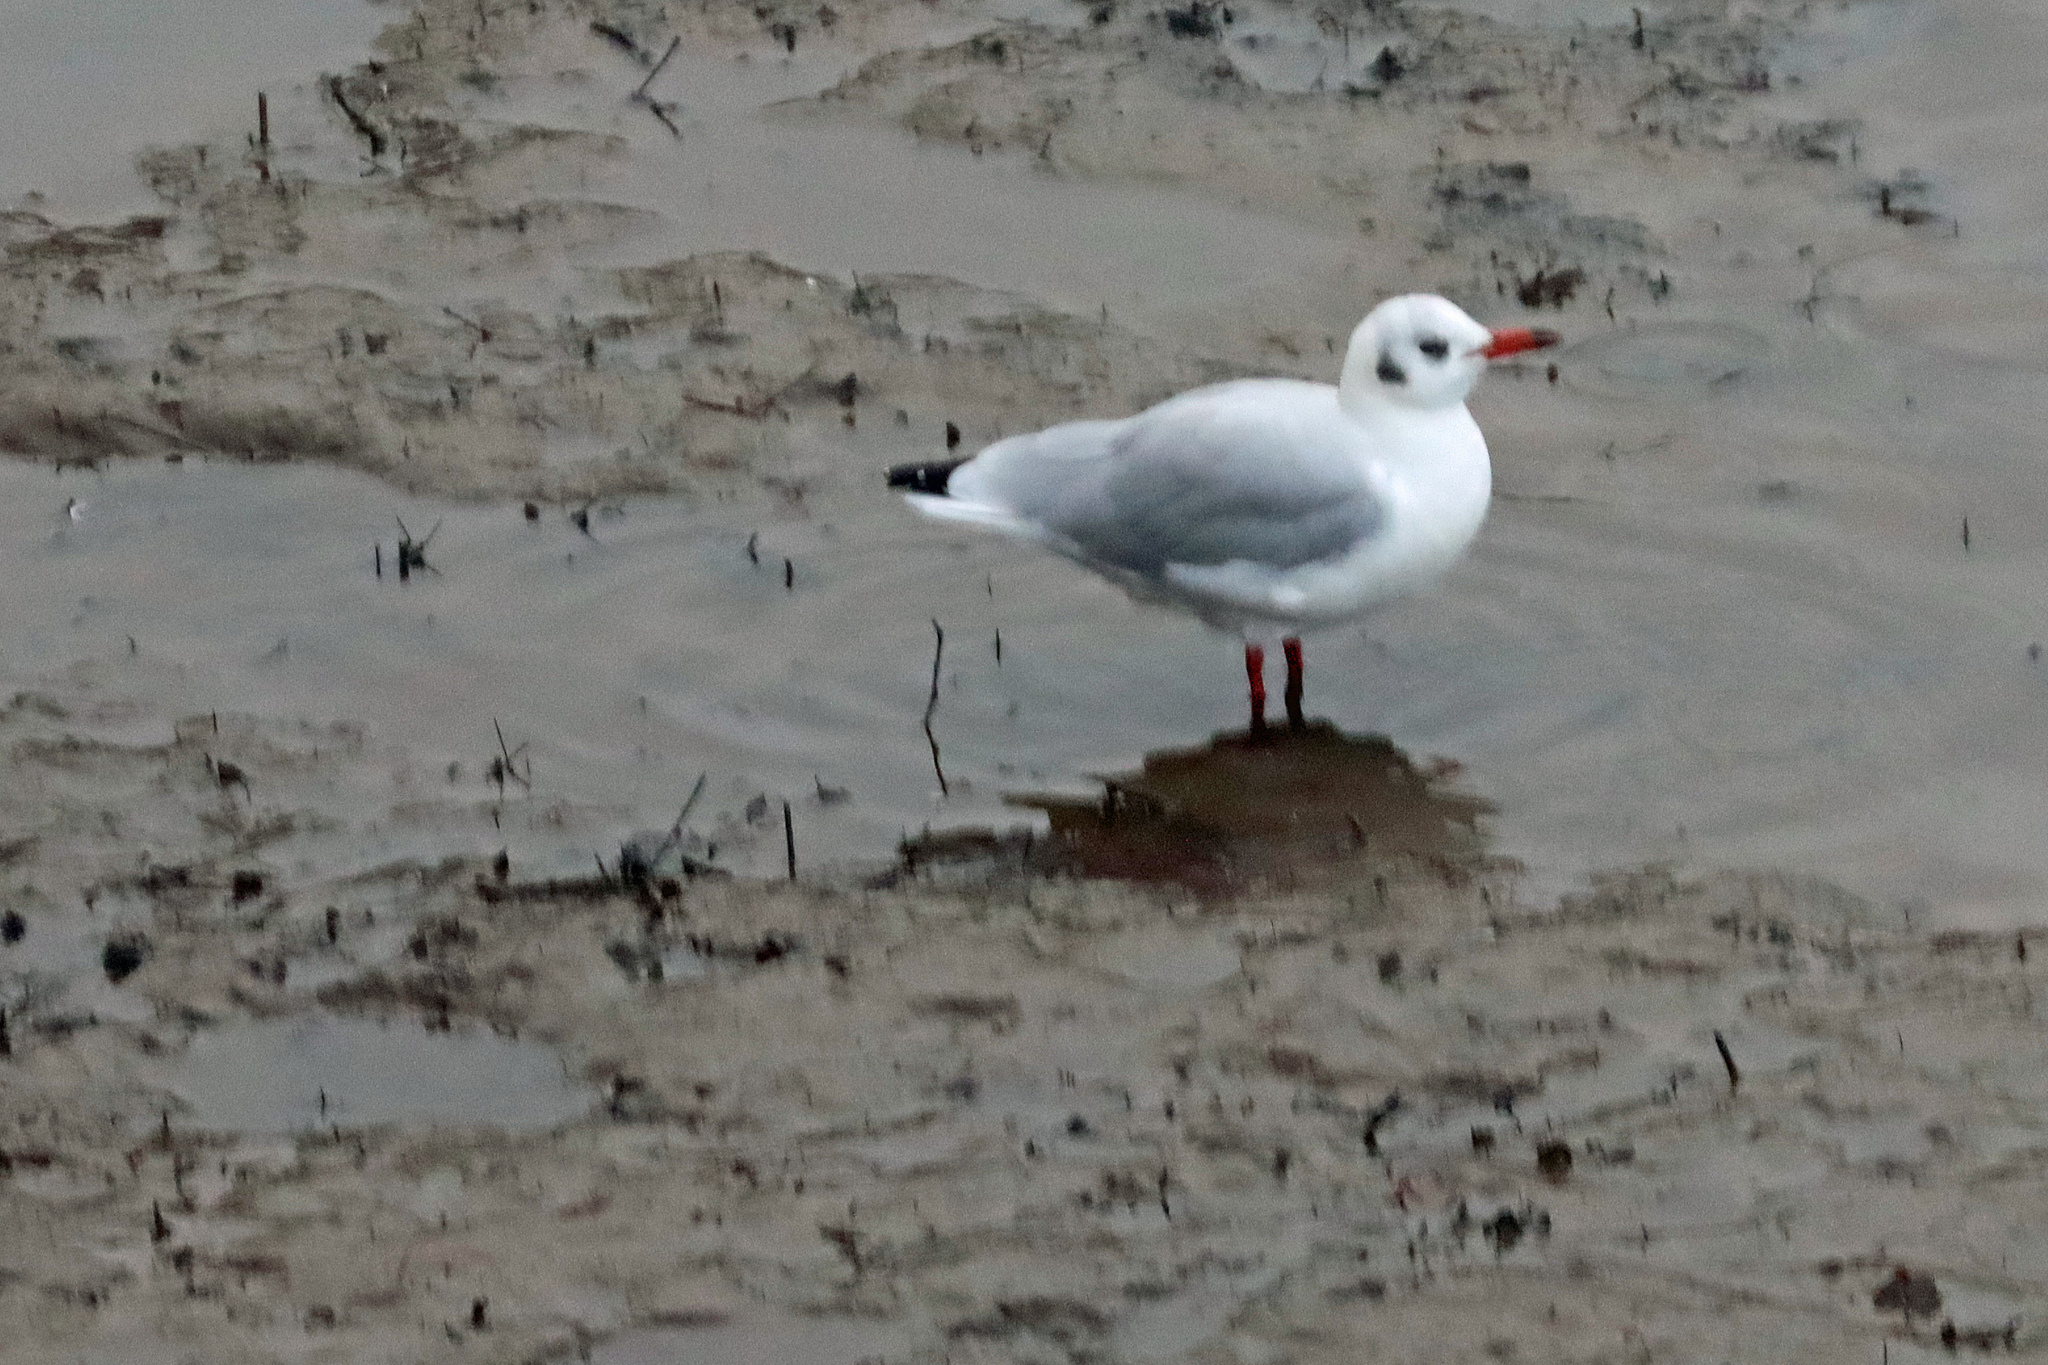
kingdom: Animalia
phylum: Chordata
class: Aves
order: Charadriiformes
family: Laridae
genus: Chroicocephalus
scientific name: Chroicocephalus ridibundus
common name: Black-headed gull
